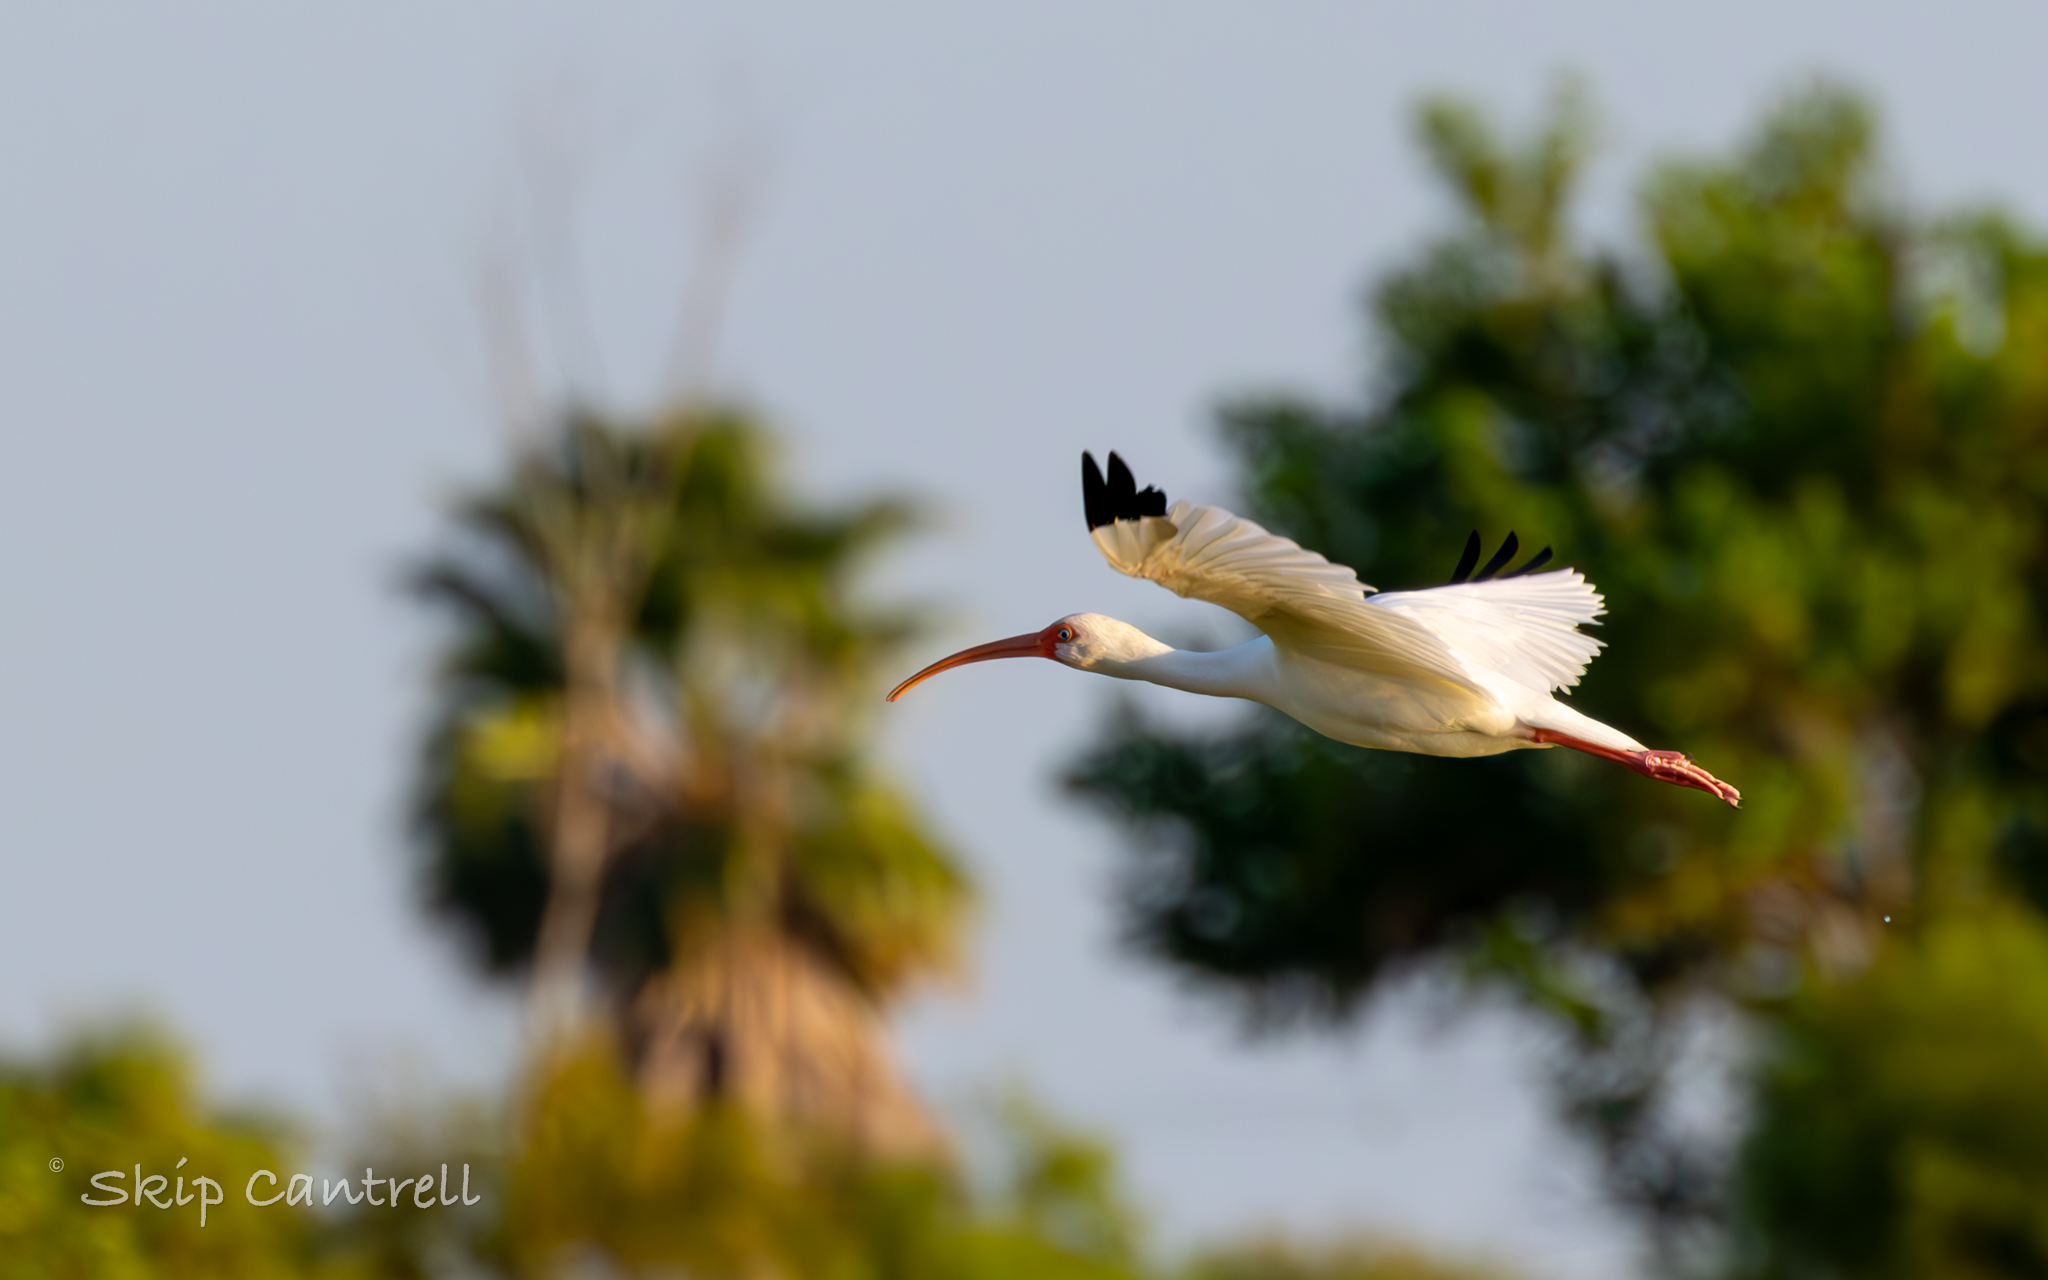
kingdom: Animalia
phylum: Chordata
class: Aves
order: Pelecaniformes
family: Threskiornithidae
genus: Eudocimus
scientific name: Eudocimus albus
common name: White ibis
